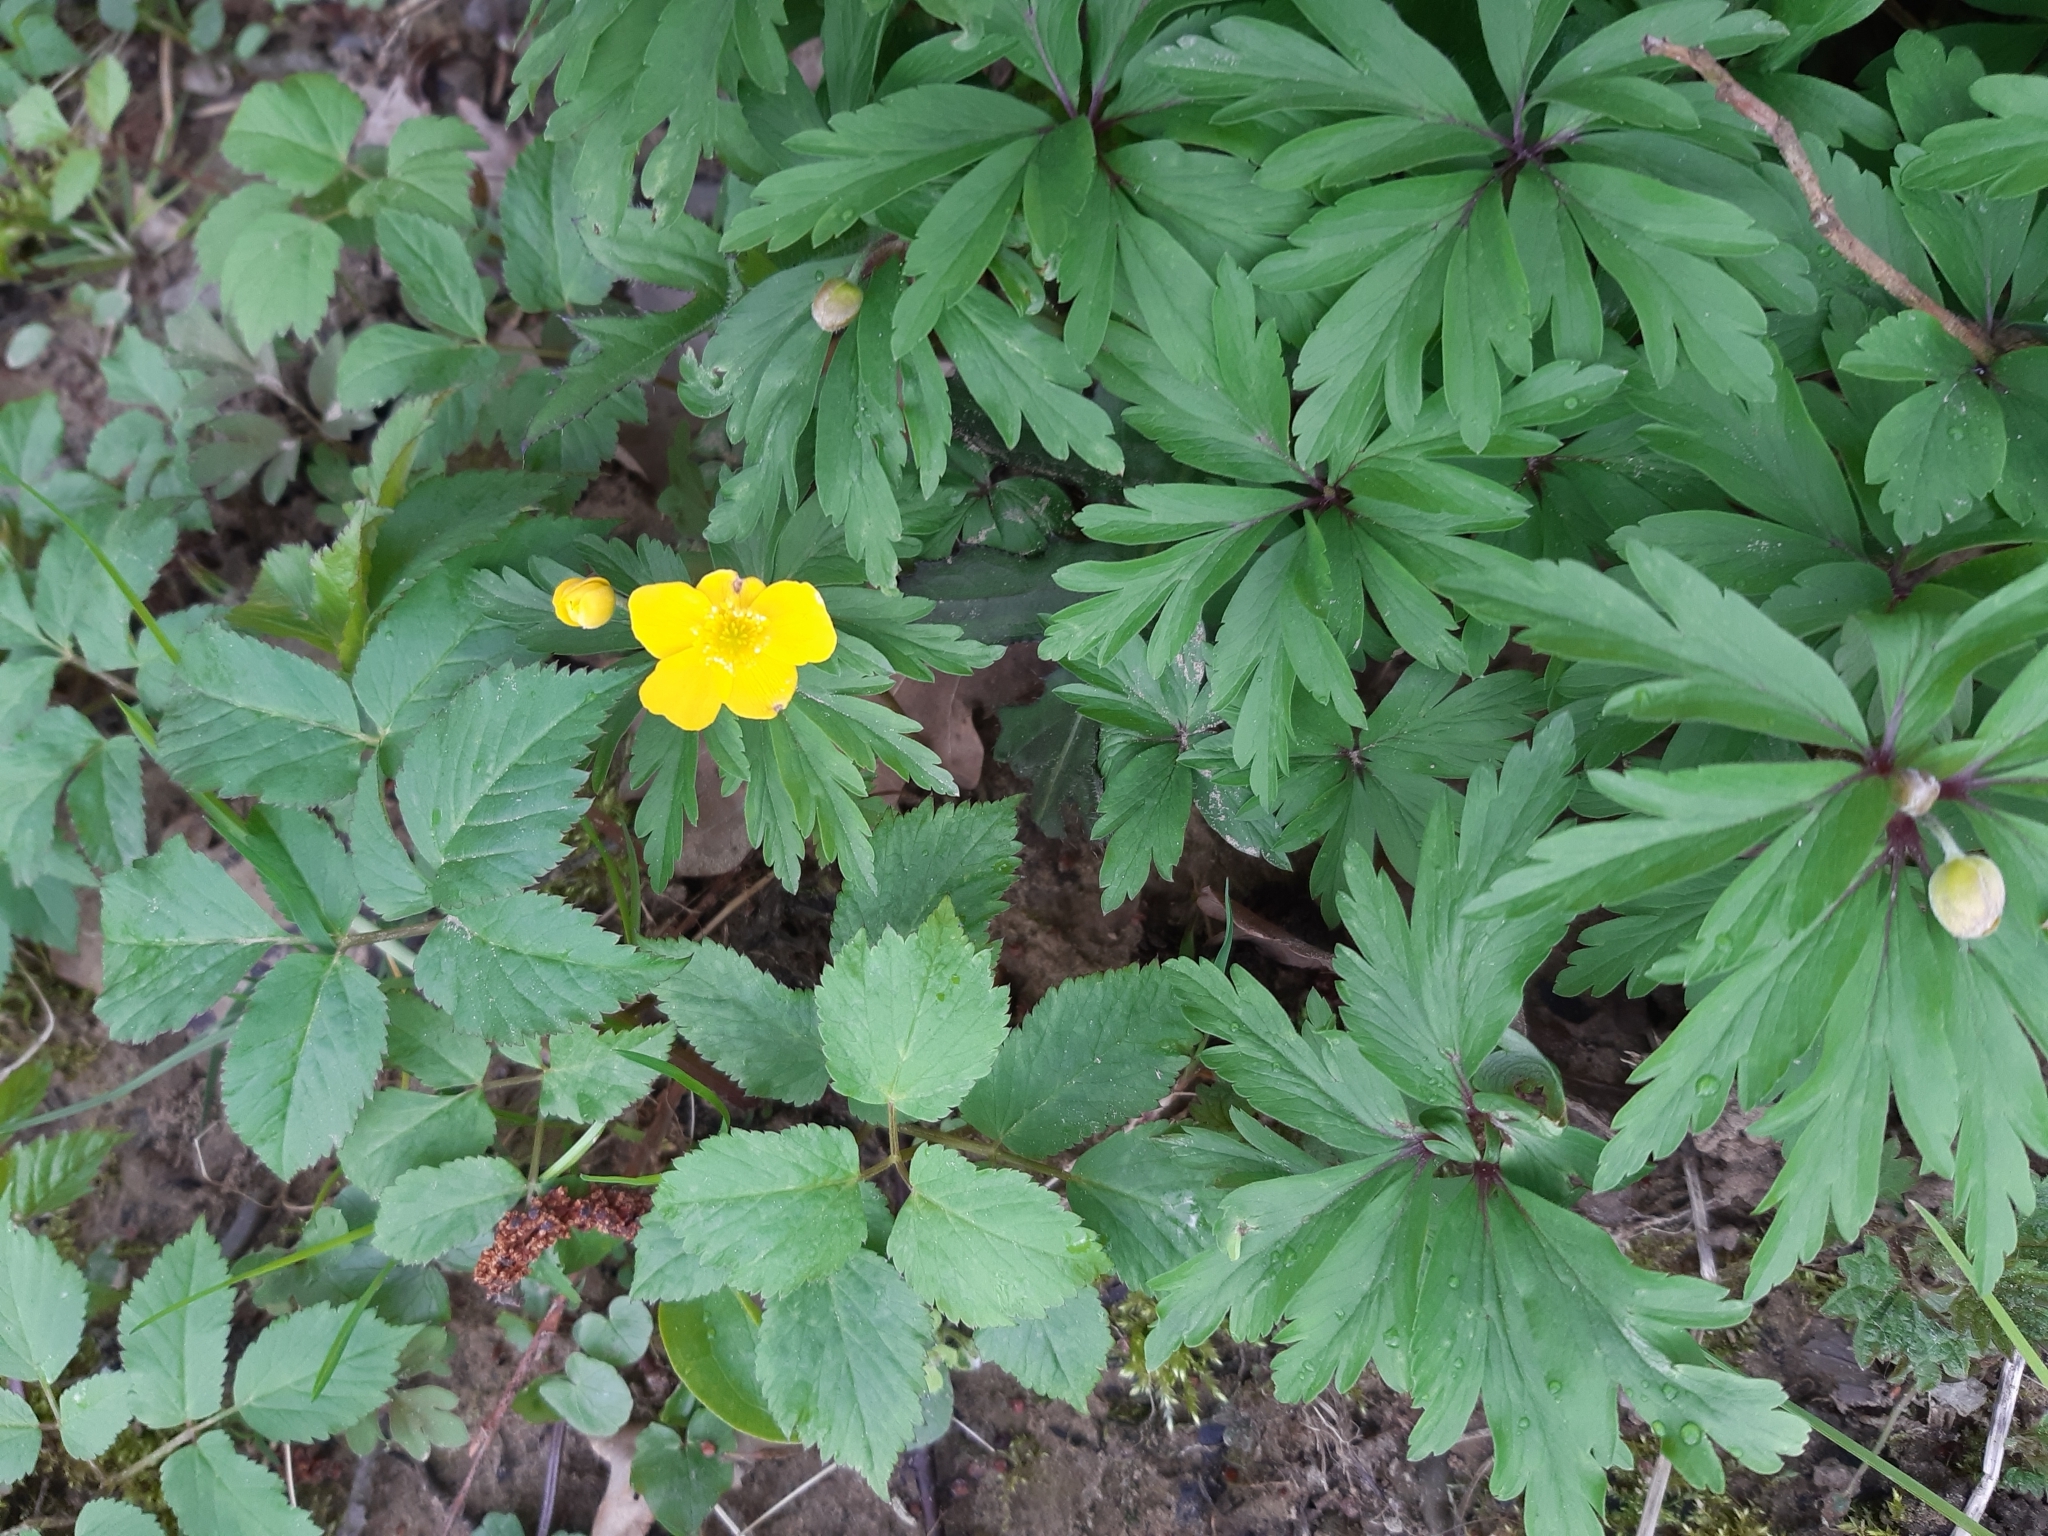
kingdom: Plantae
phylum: Tracheophyta
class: Magnoliopsida
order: Ranunculales
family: Ranunculaceae
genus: Anemone
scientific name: Anemone ranunculoides
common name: Yellow anemone
